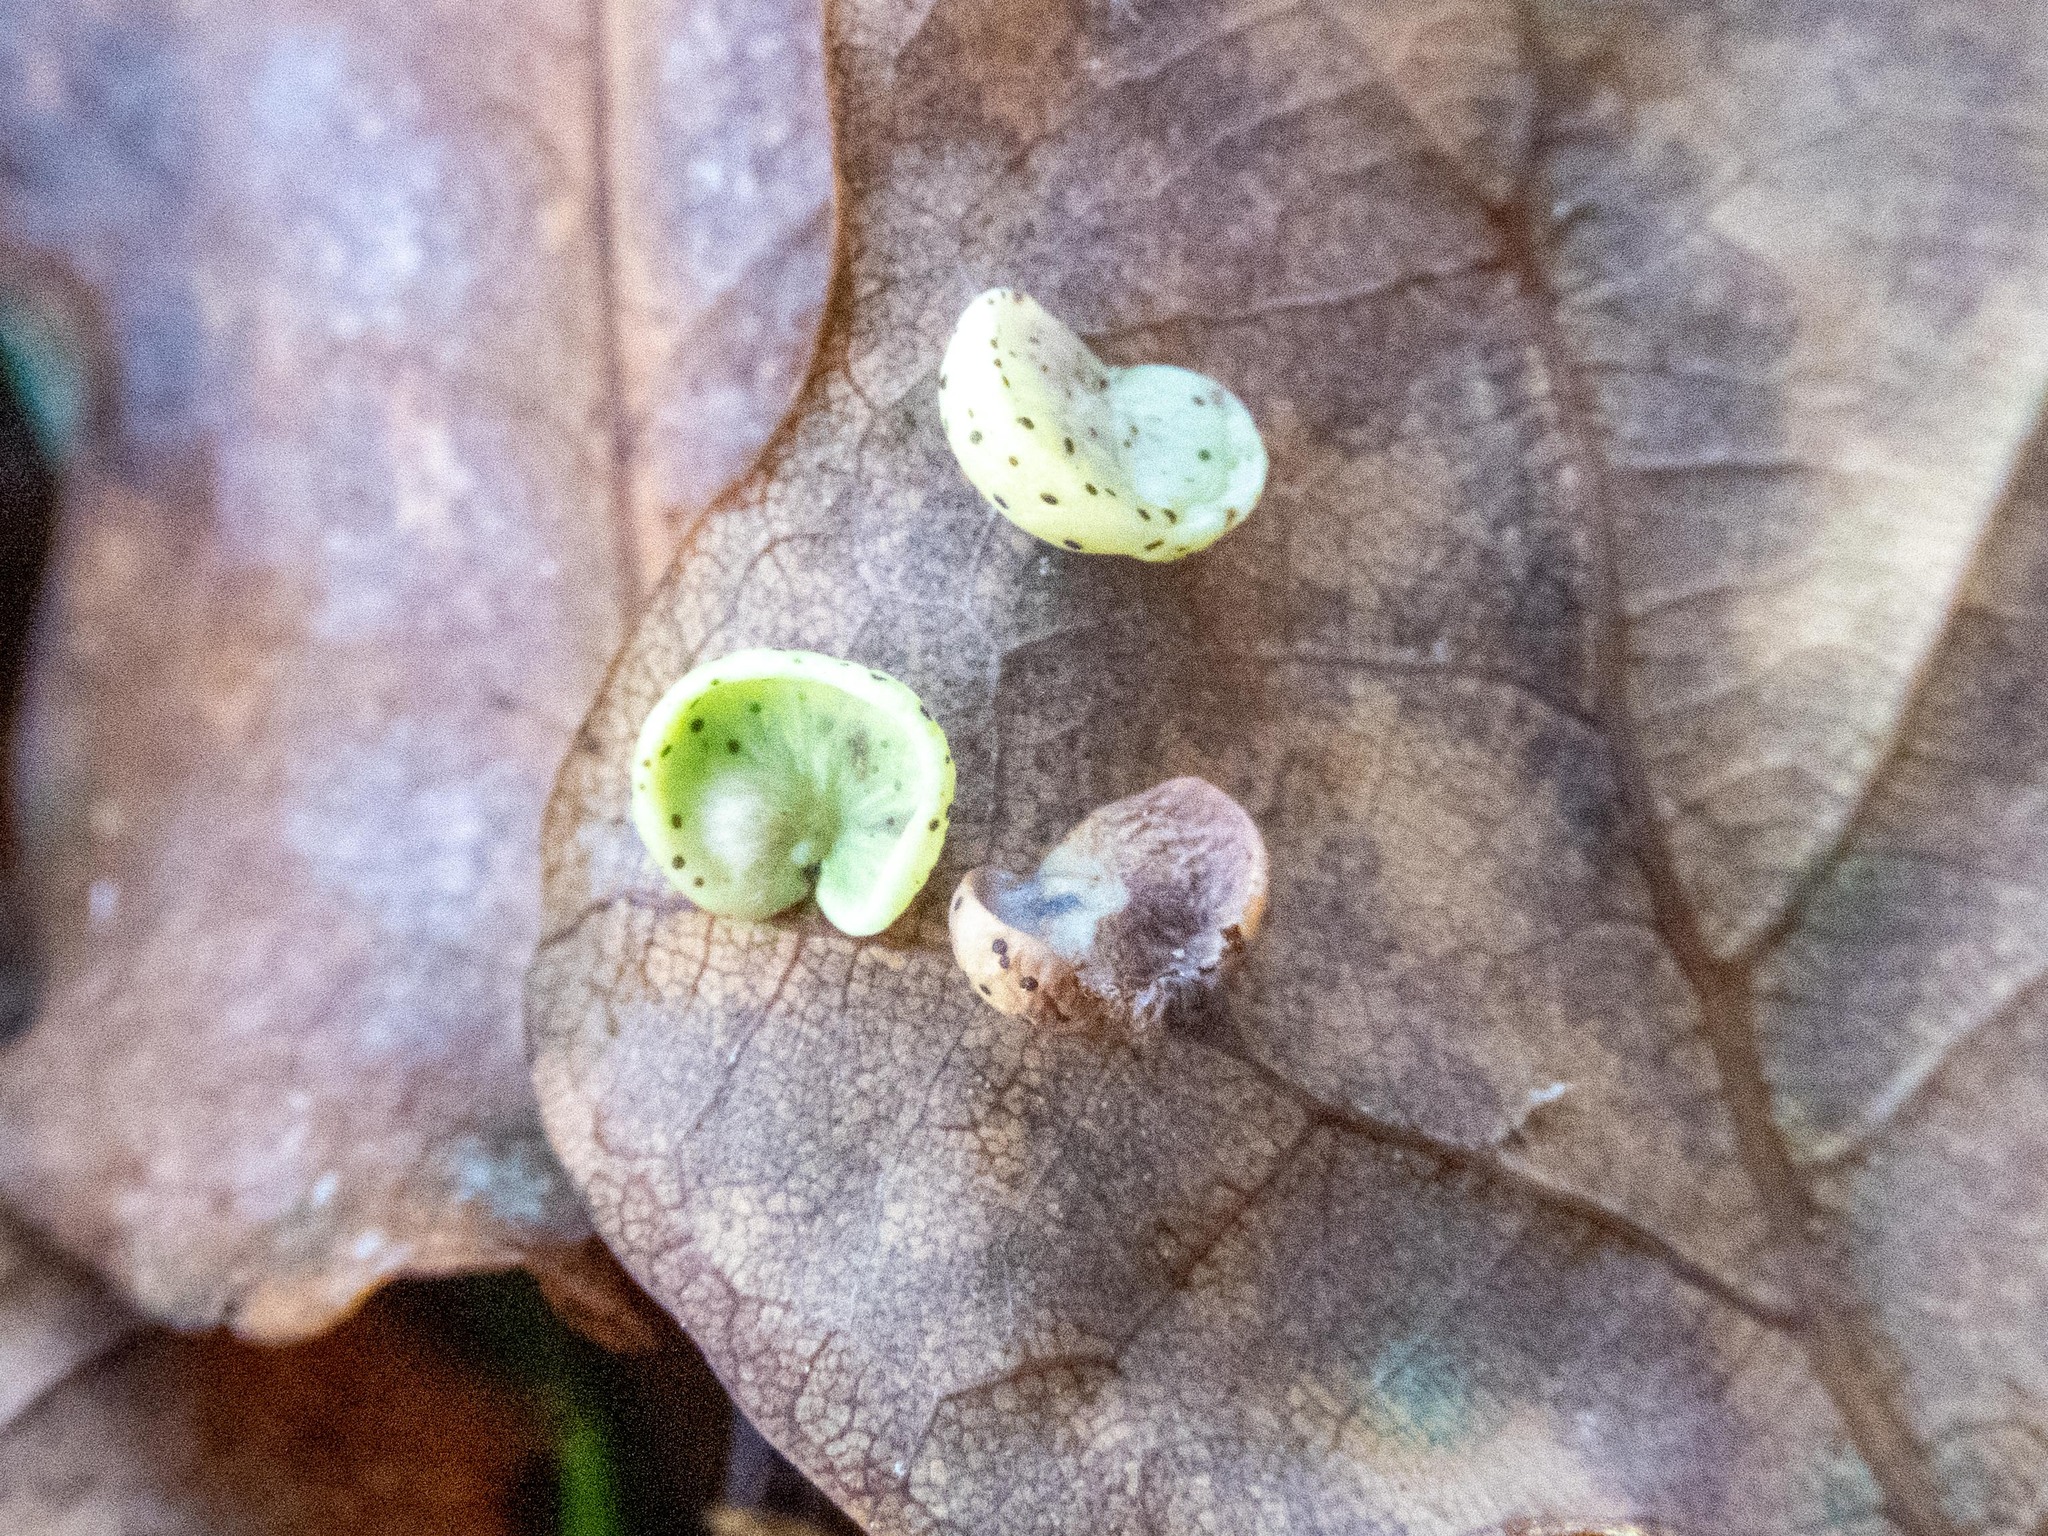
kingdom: Animalia
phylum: Arthropoda
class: Insecta
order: Hymenoptera
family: Cynipidae
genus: Neuroterus
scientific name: Neuroterus albipes
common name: Smooth spangle gall
